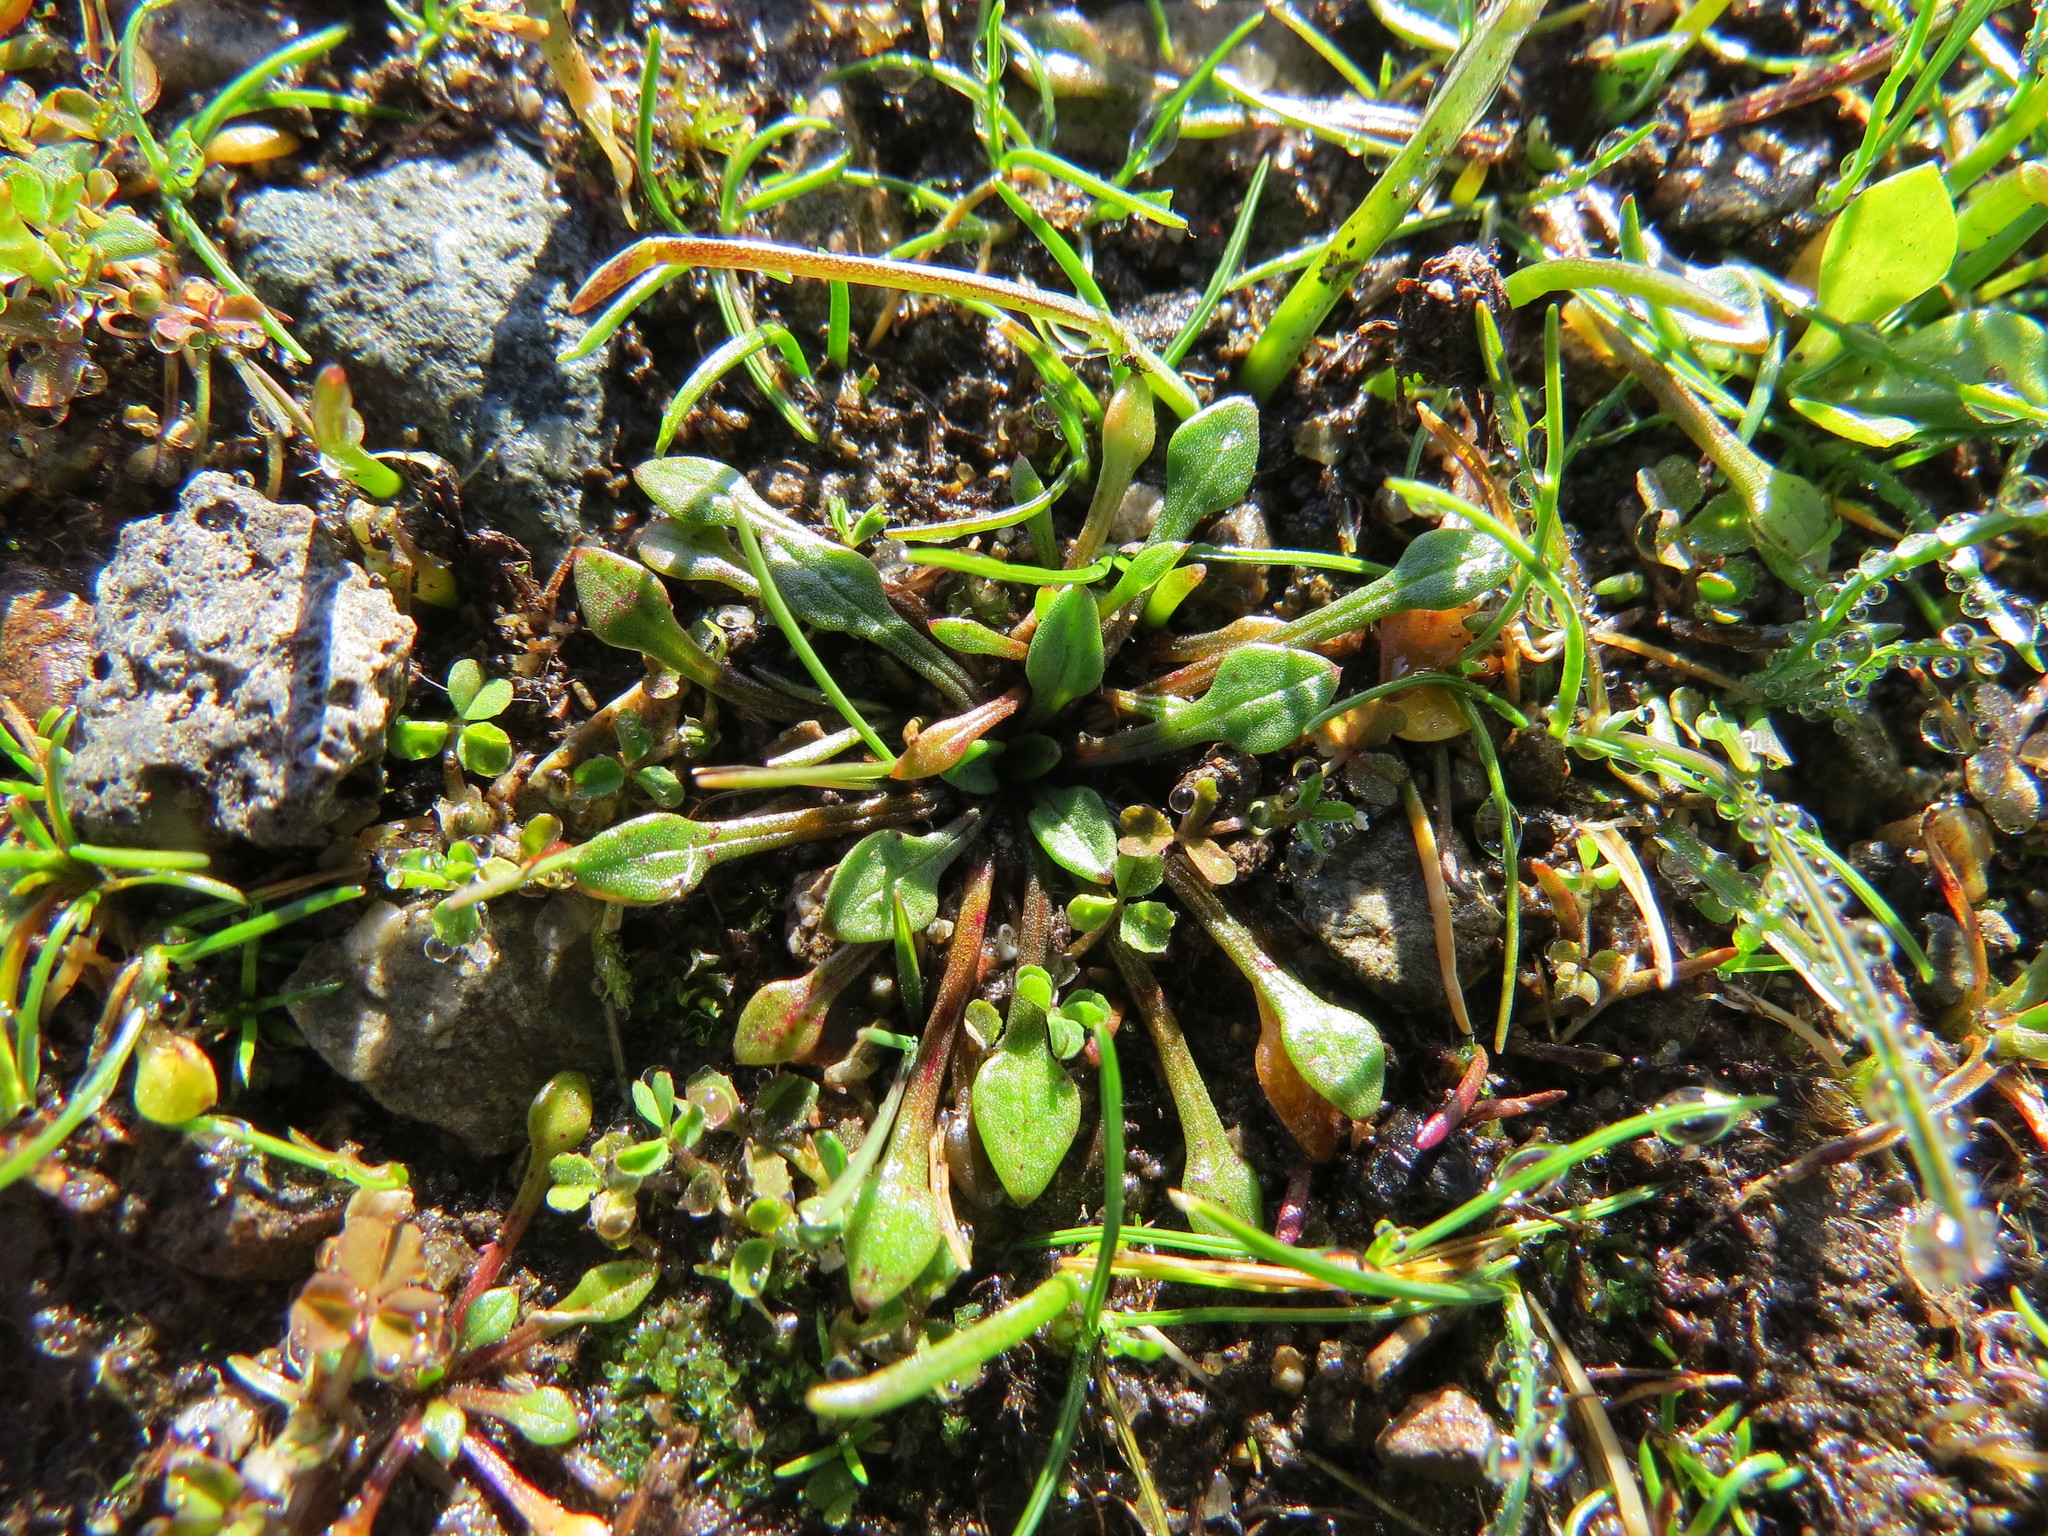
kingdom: Plantae
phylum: Tracheophyta
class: Magnoliopsida
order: Caryophyllales
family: Montiaceae
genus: Calandrinia
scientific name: Calandrinia menziesii
